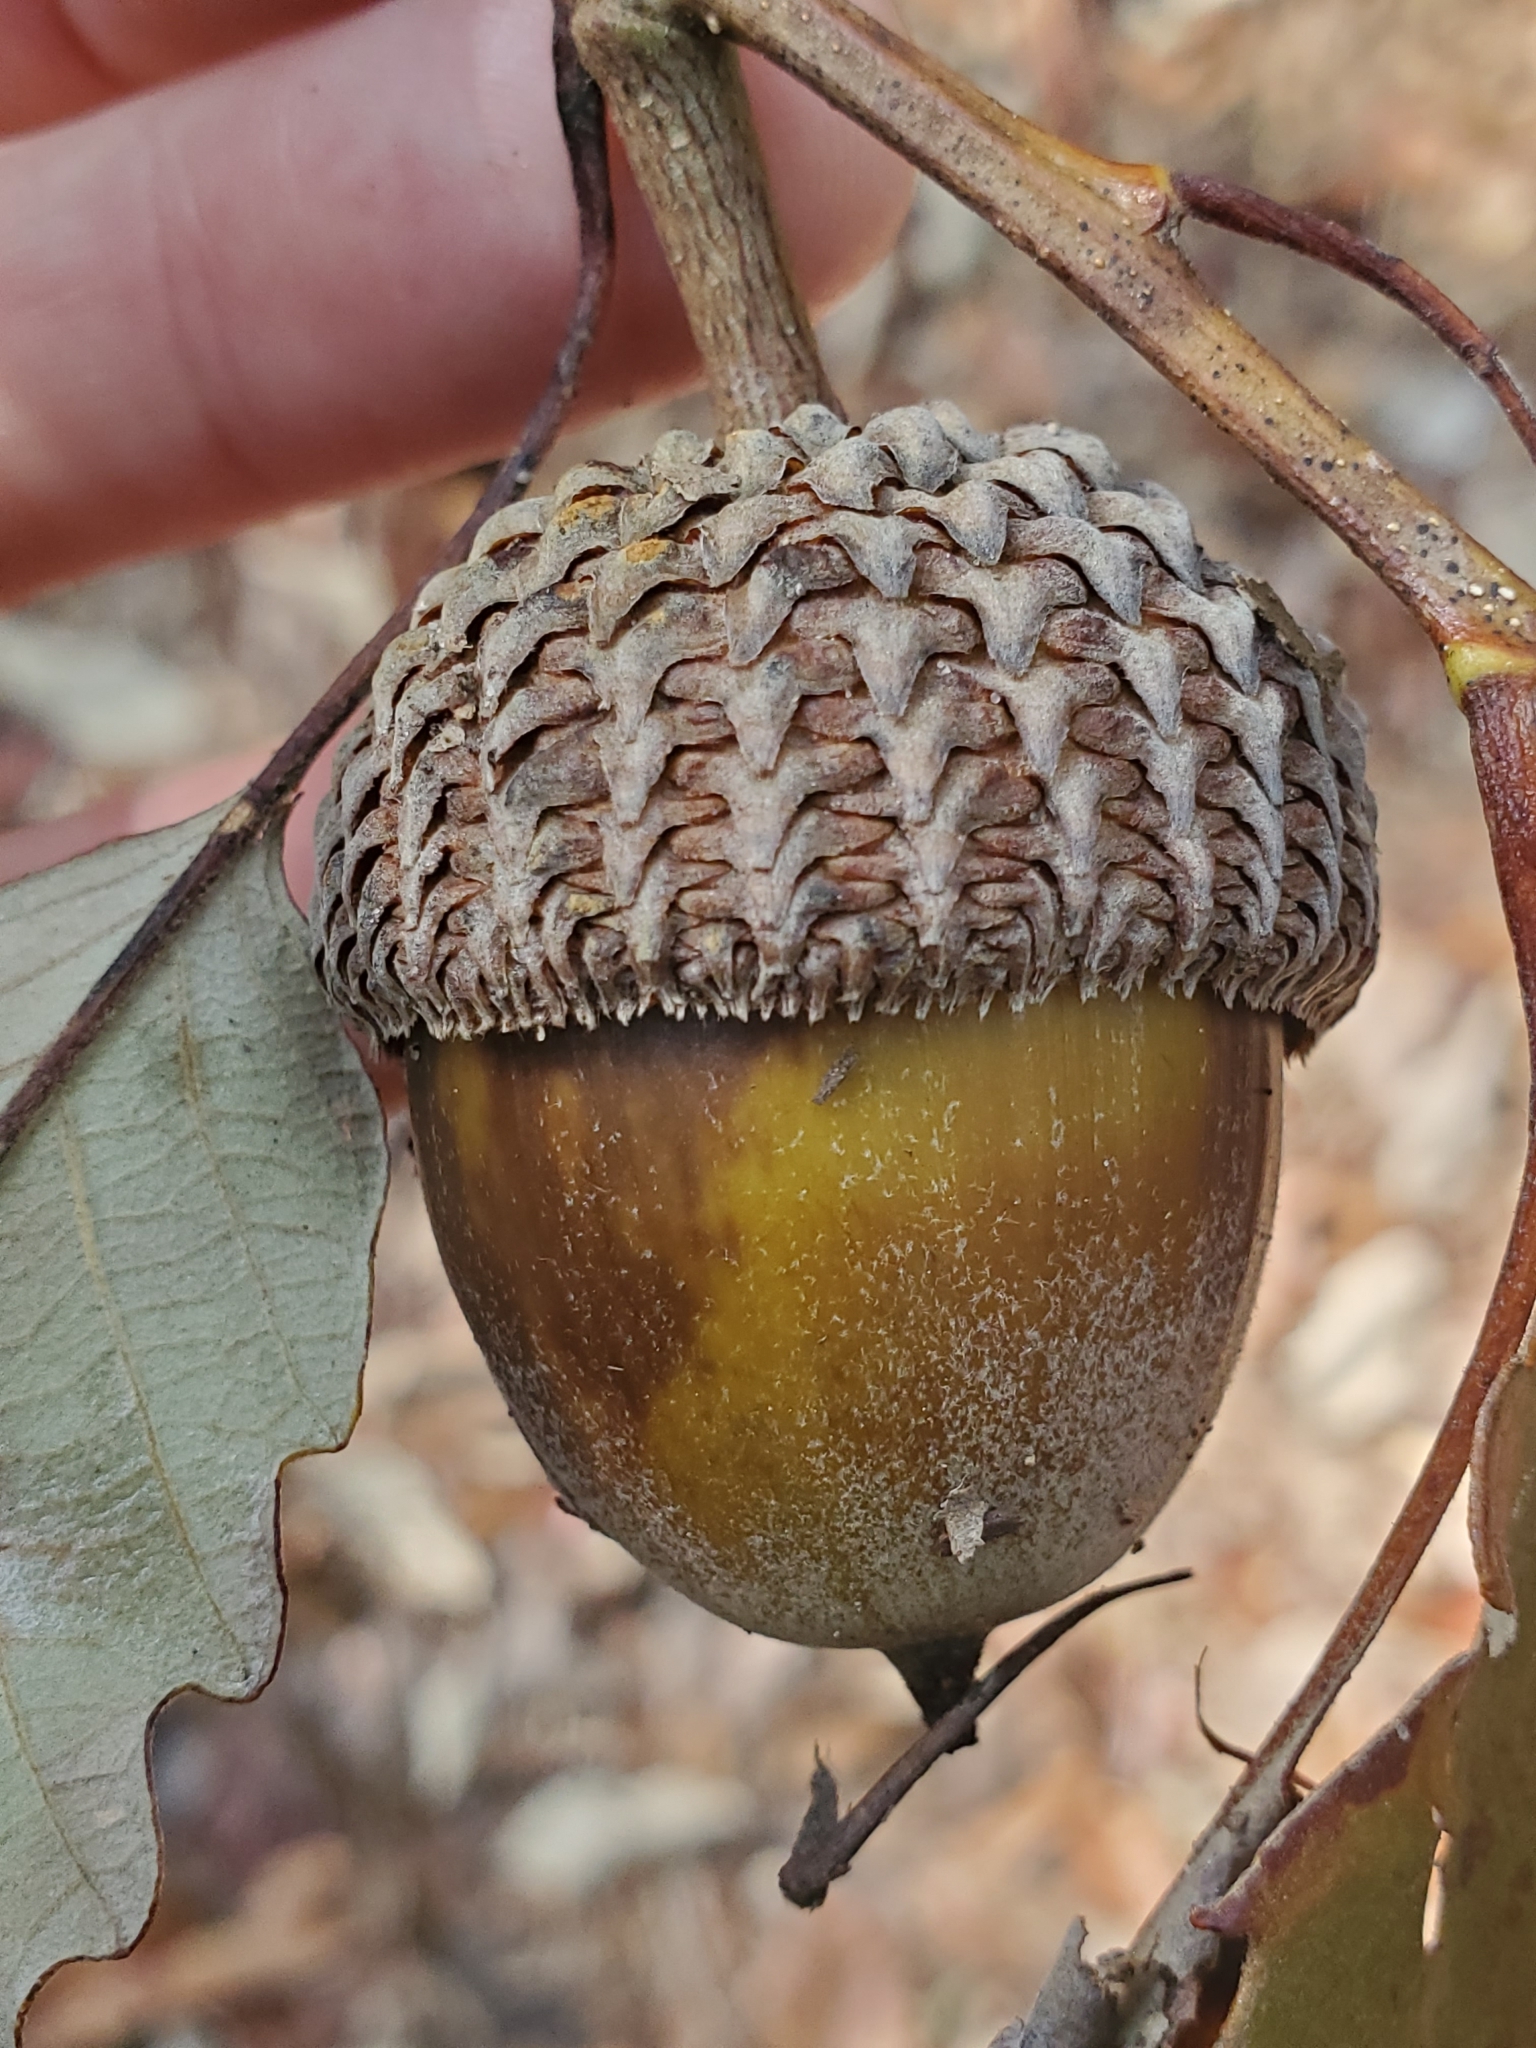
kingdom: Plantae
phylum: Tracheophyta
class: Magnoliopsida
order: Fagales
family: Fagaceae
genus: Quercus
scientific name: Quercus michauxii
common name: Swamp chestnut oak
